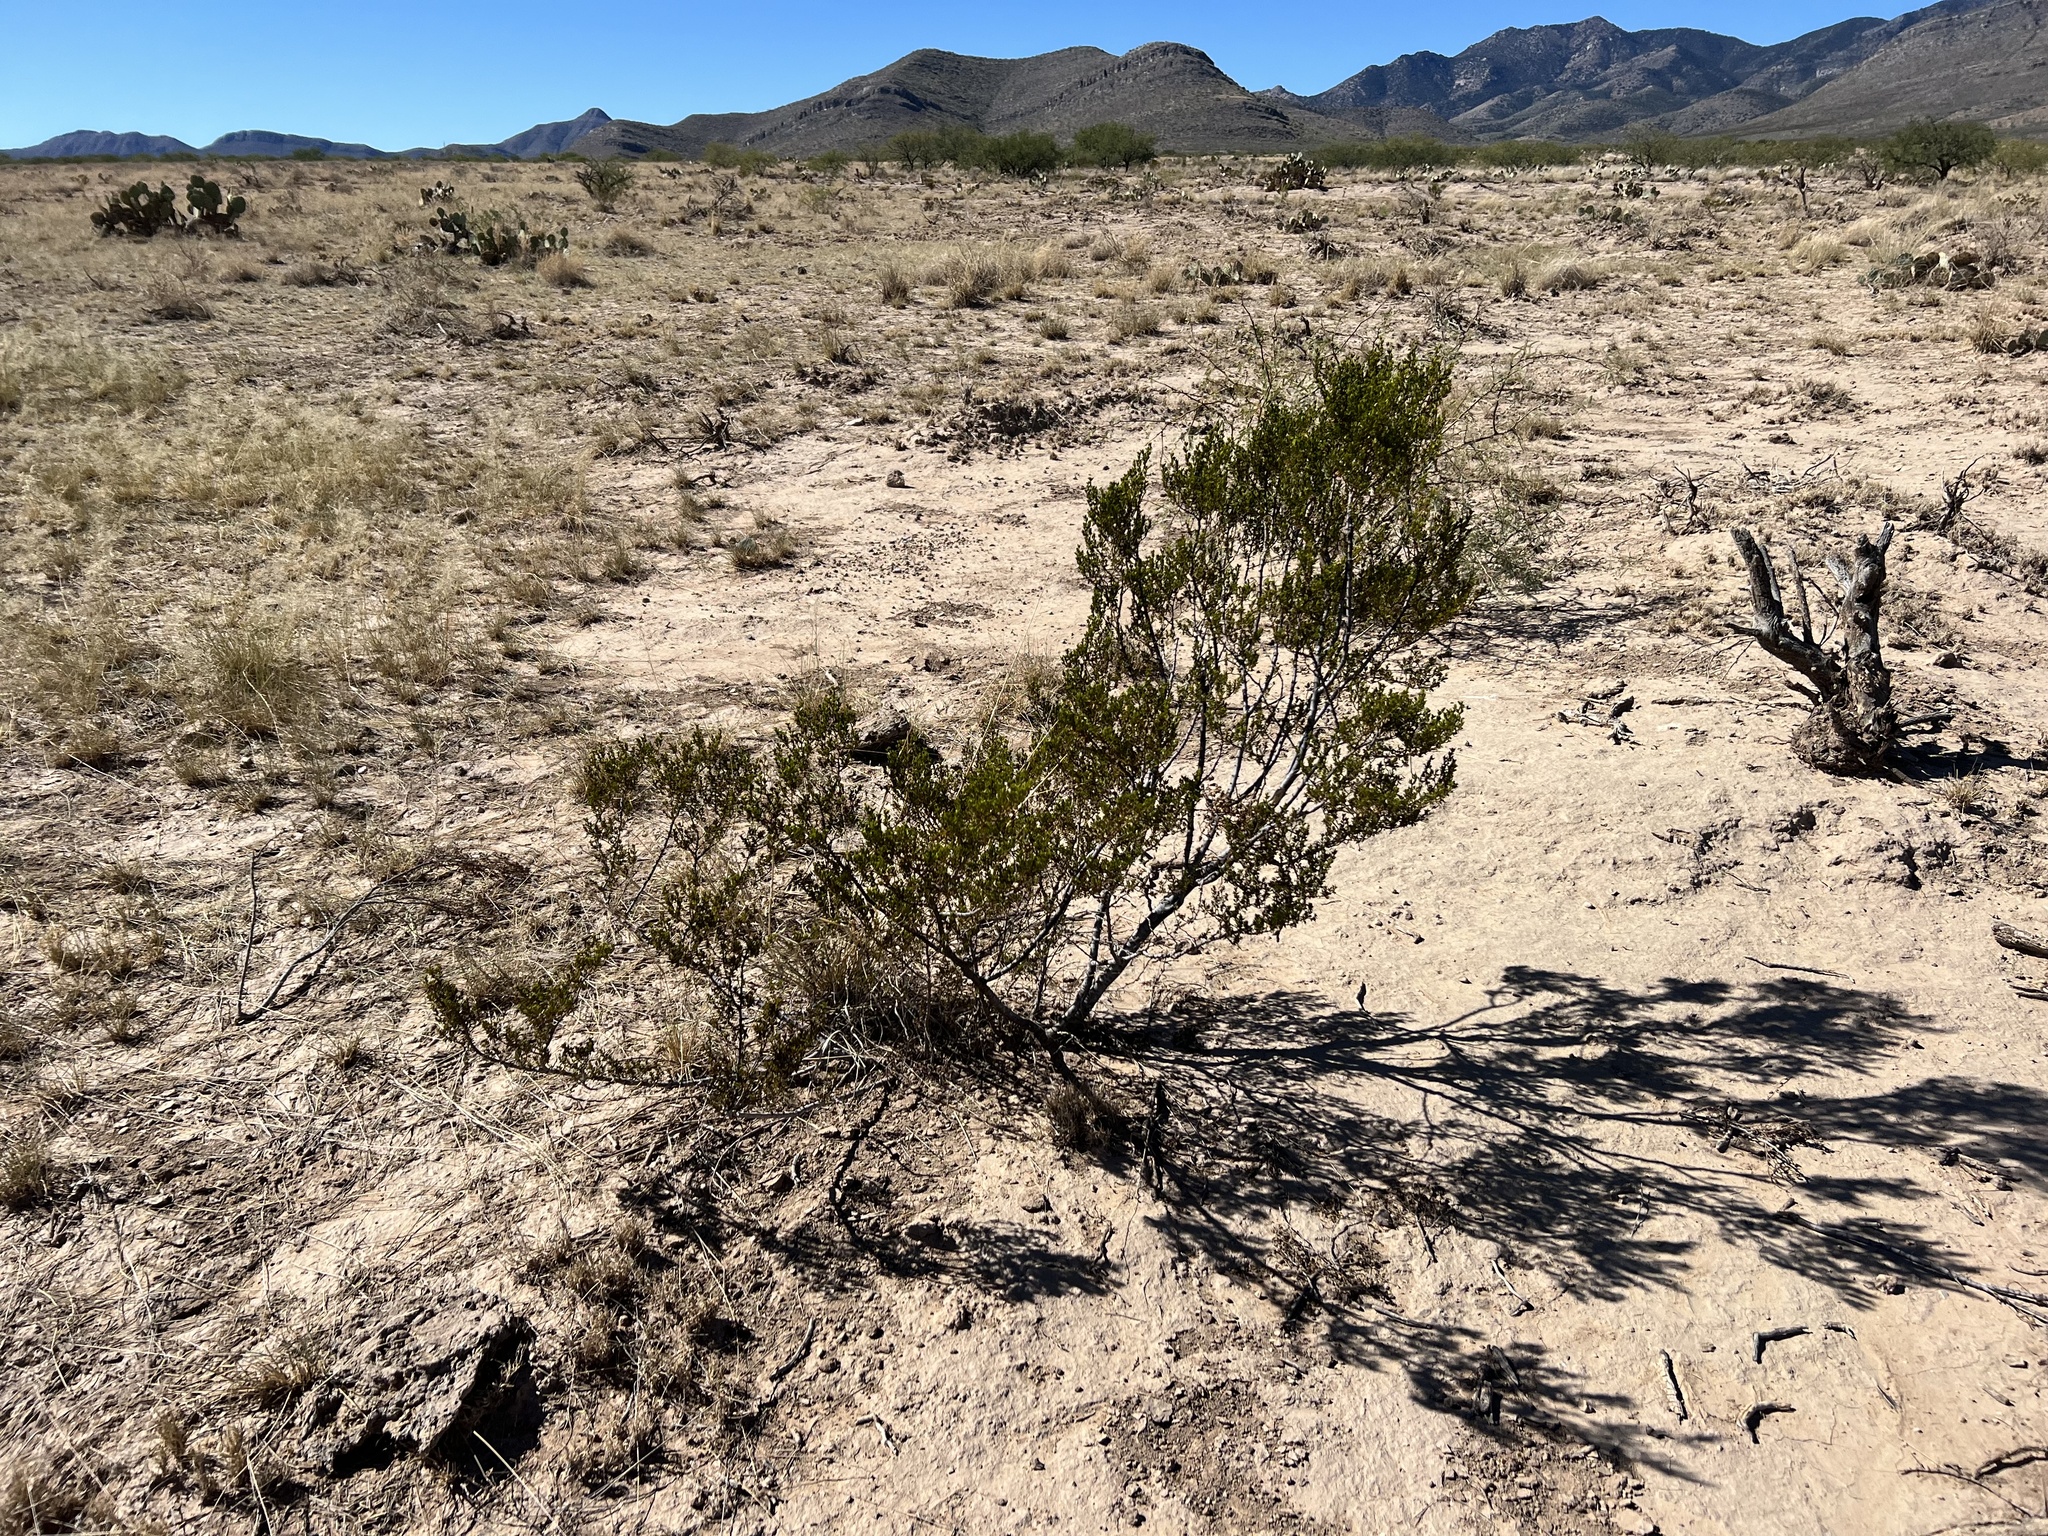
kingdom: Plantae
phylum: Tracheophyta
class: Magnoliopsida
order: Zygophyllales
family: Zygophyllaceae
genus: Larrea
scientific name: Larrea tridentata
